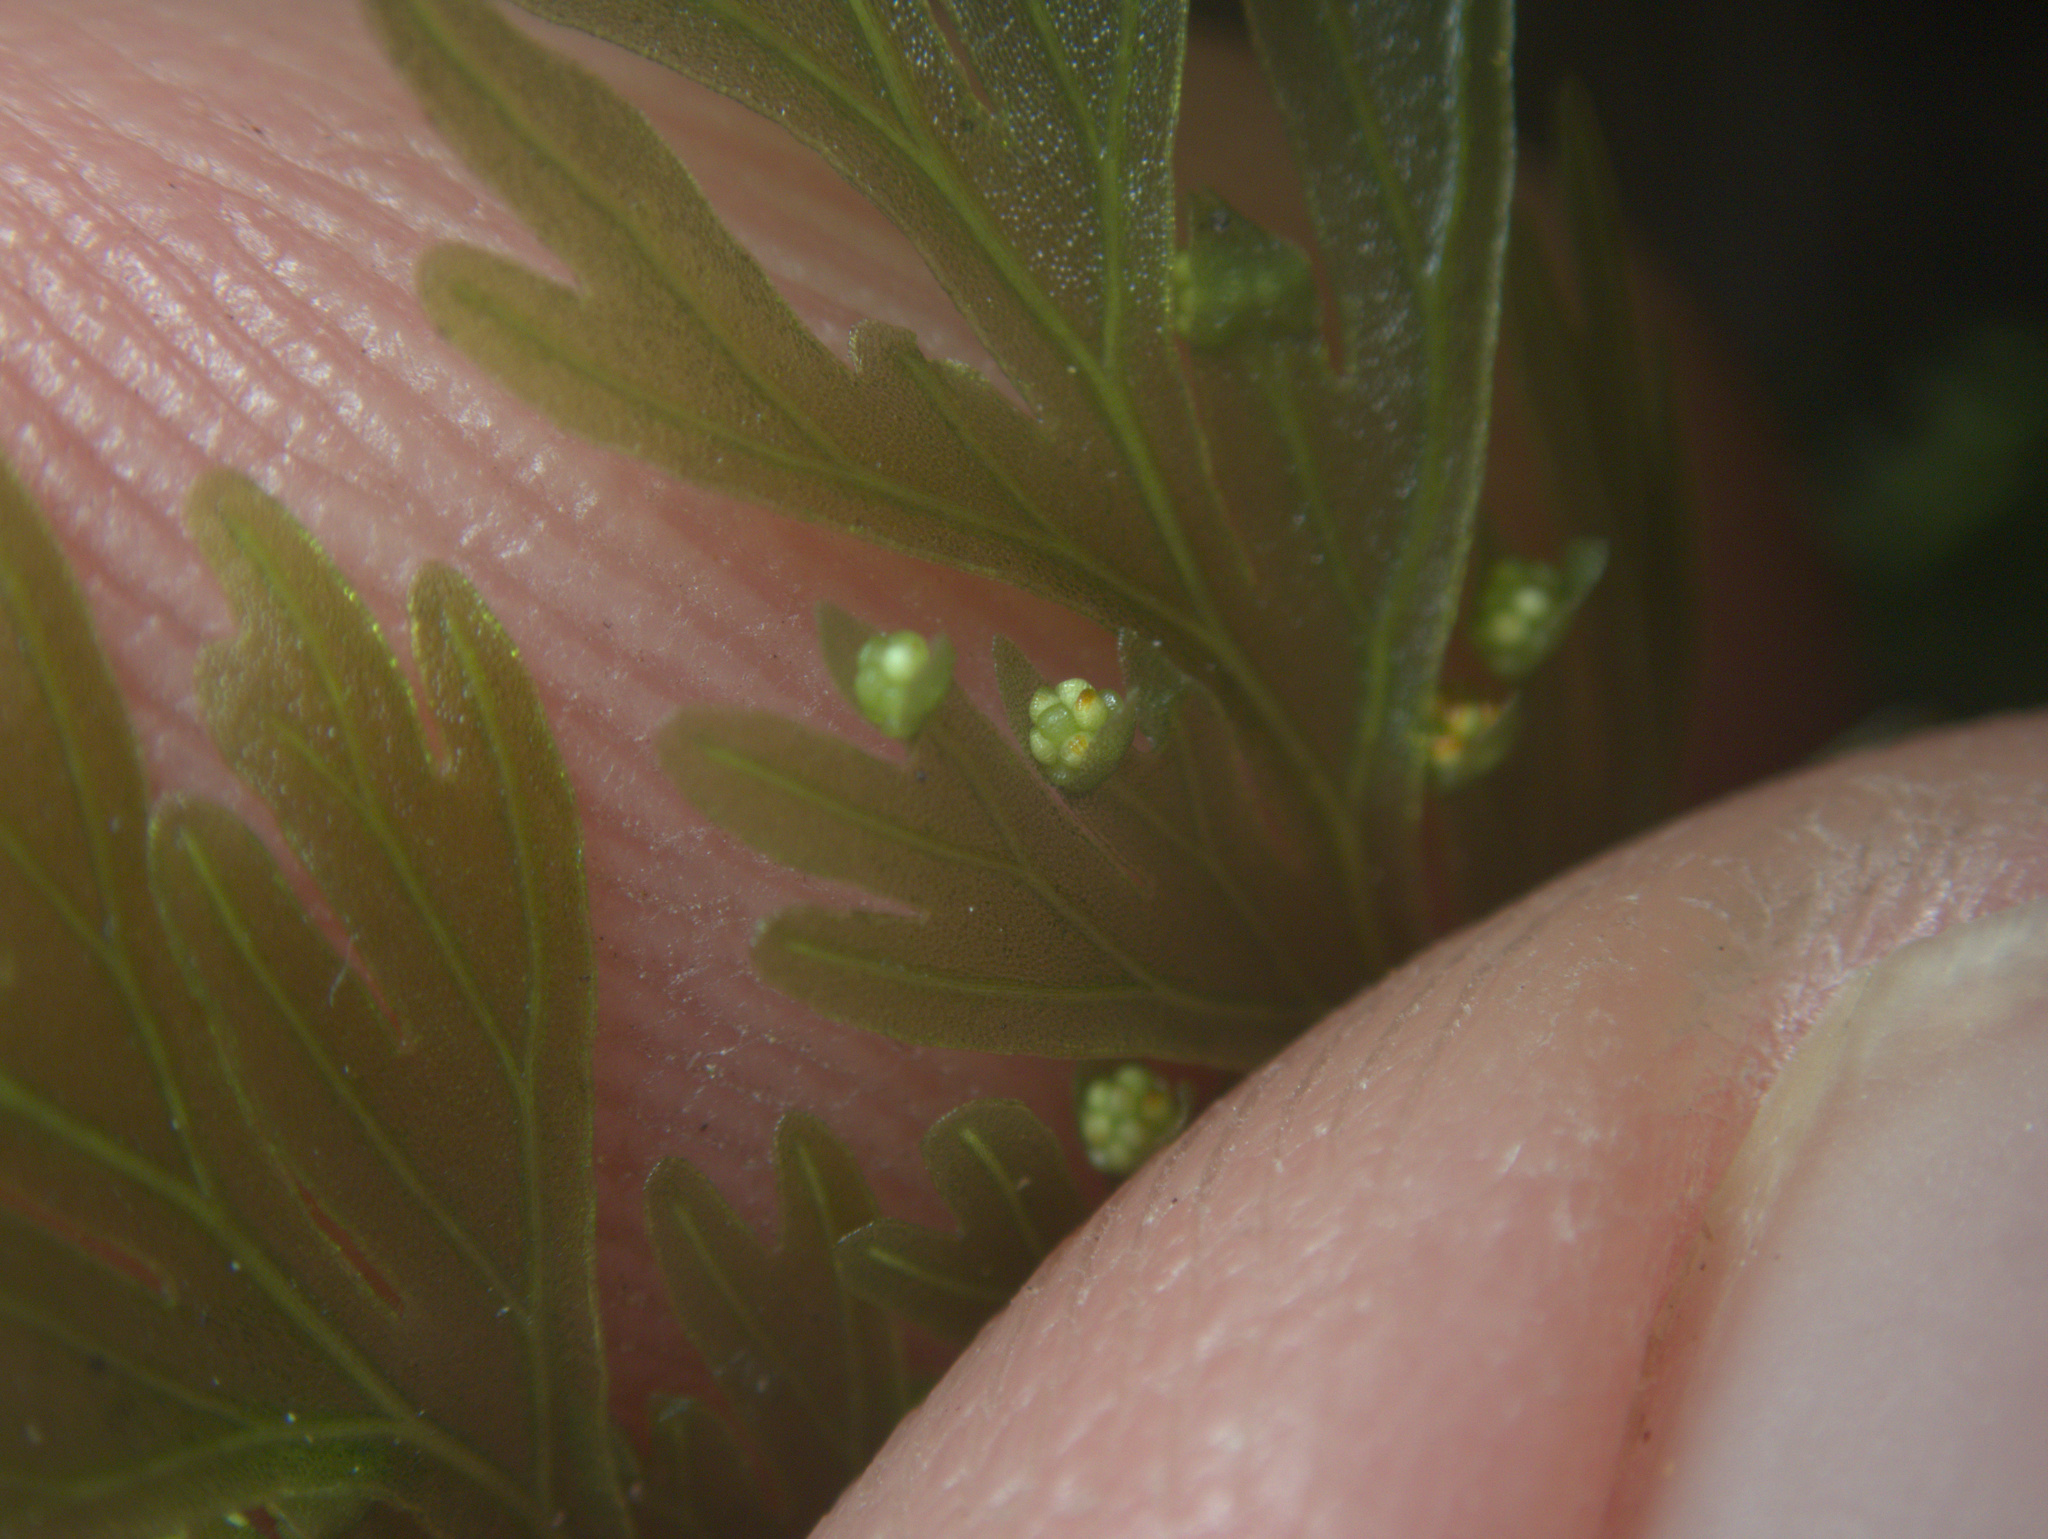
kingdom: Plantae
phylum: Tracheophyta
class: Polypodiopsida
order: Hymenophyllales
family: Hymenophyllaceae
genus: Hymenophyllum
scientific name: Hymenophyllum demissum
